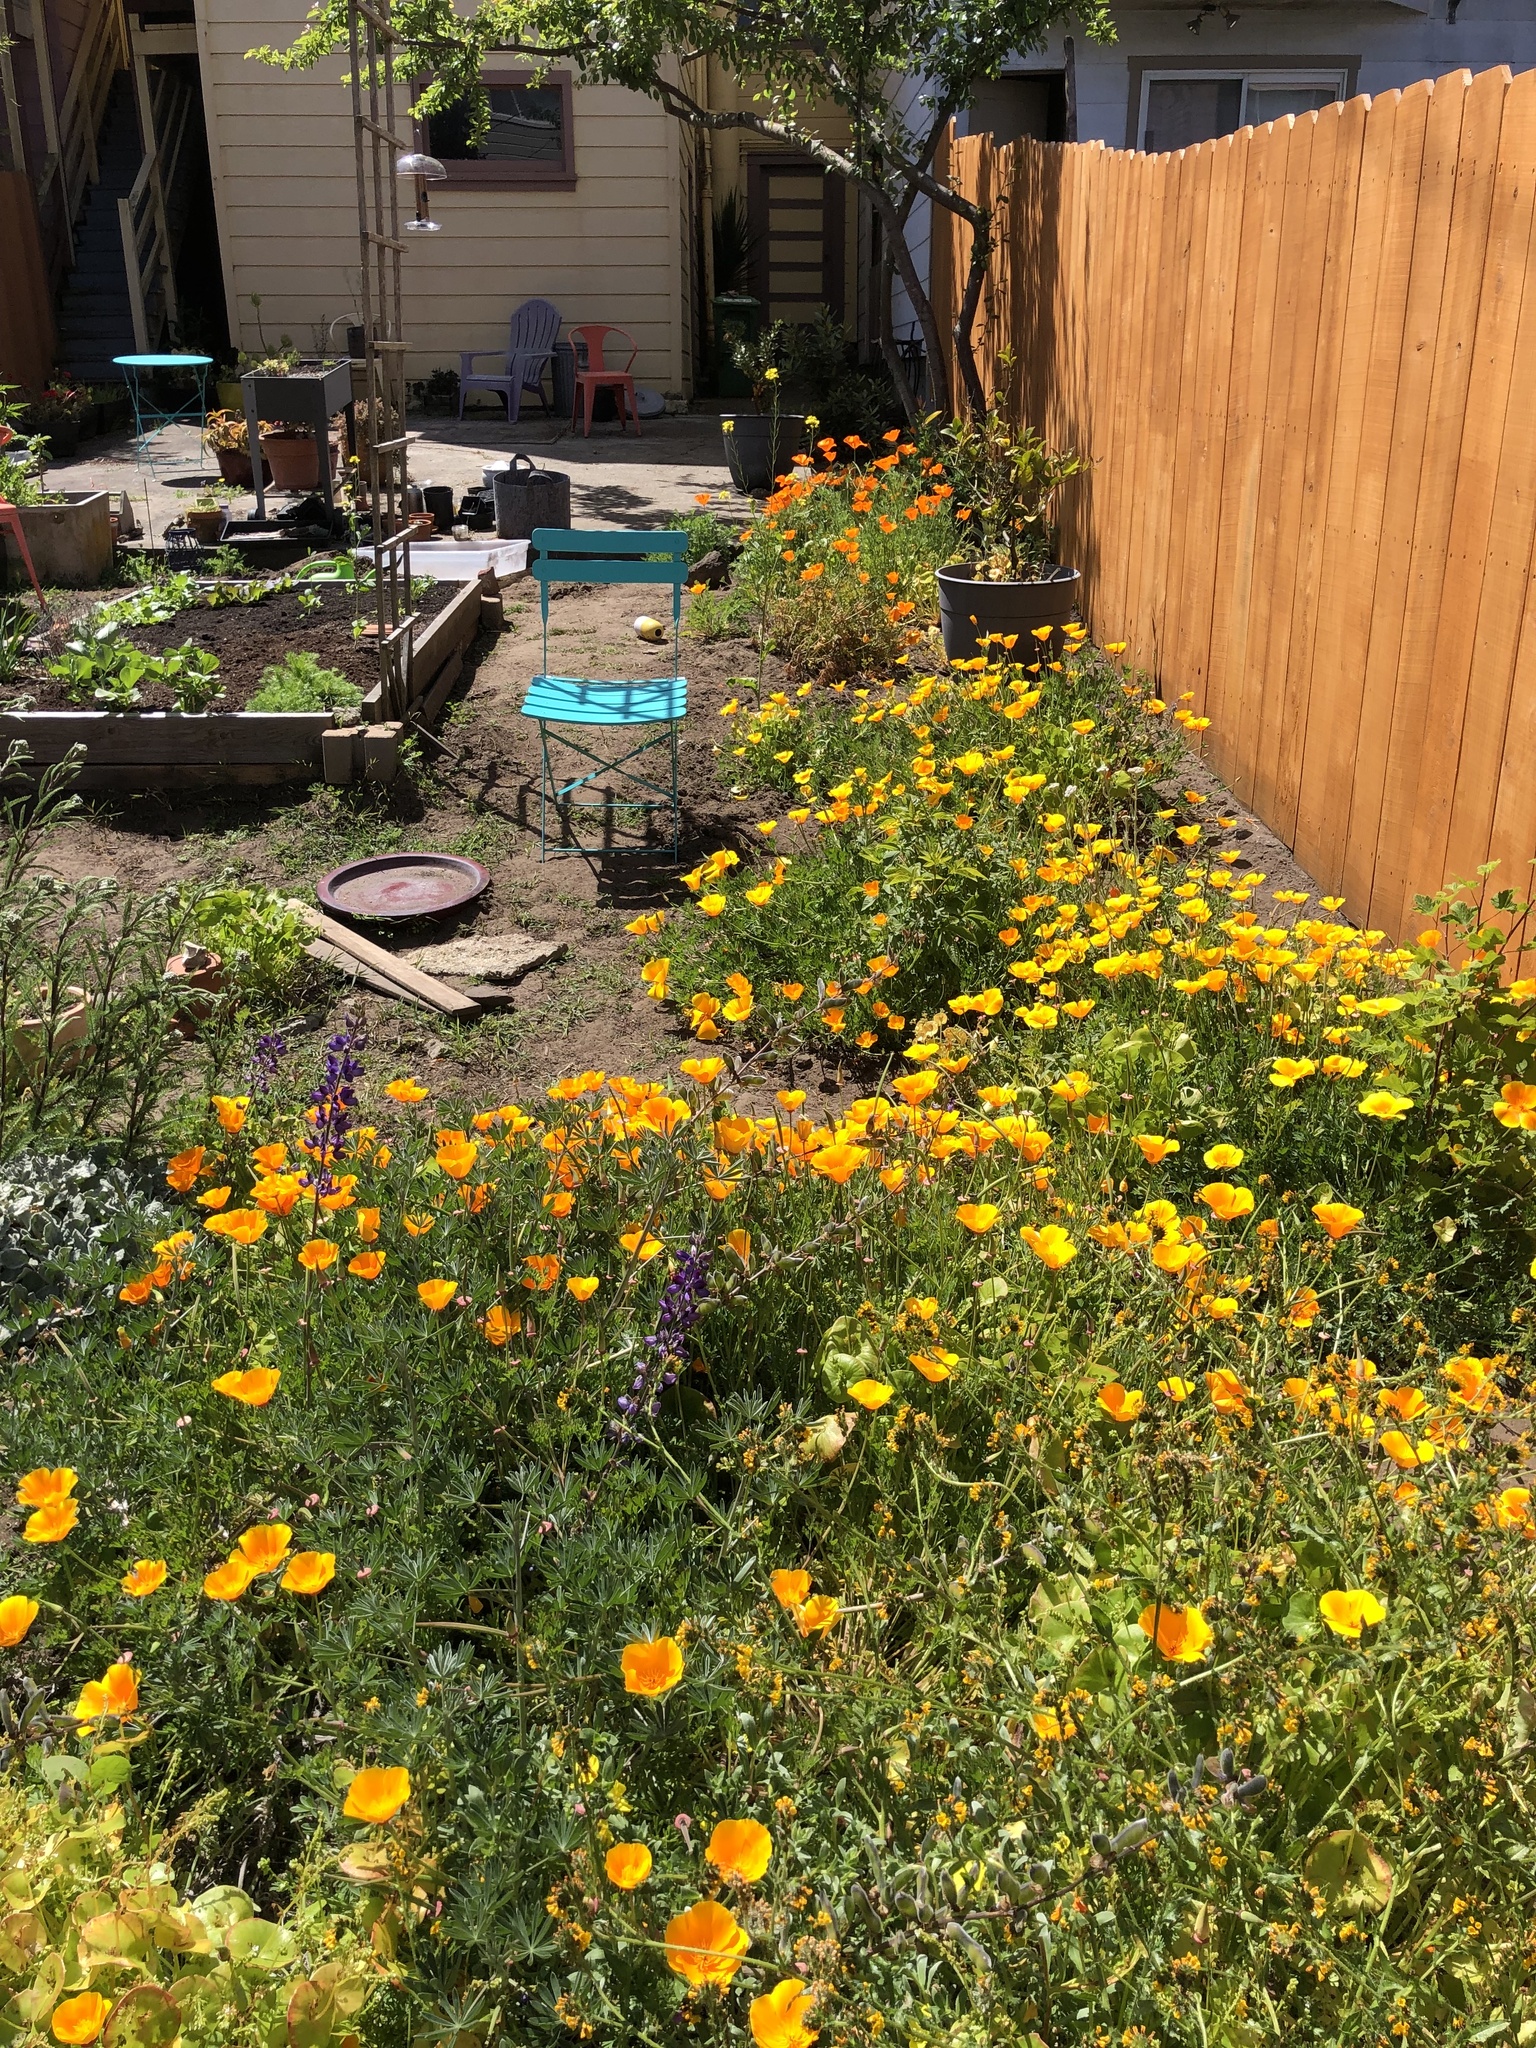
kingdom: Plantae
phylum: Tracheophyta
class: Magnoliopsida
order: Ranunculales
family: Papaveraceae
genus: Eschscholzia
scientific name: Eschscholzia californica
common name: California poppy
